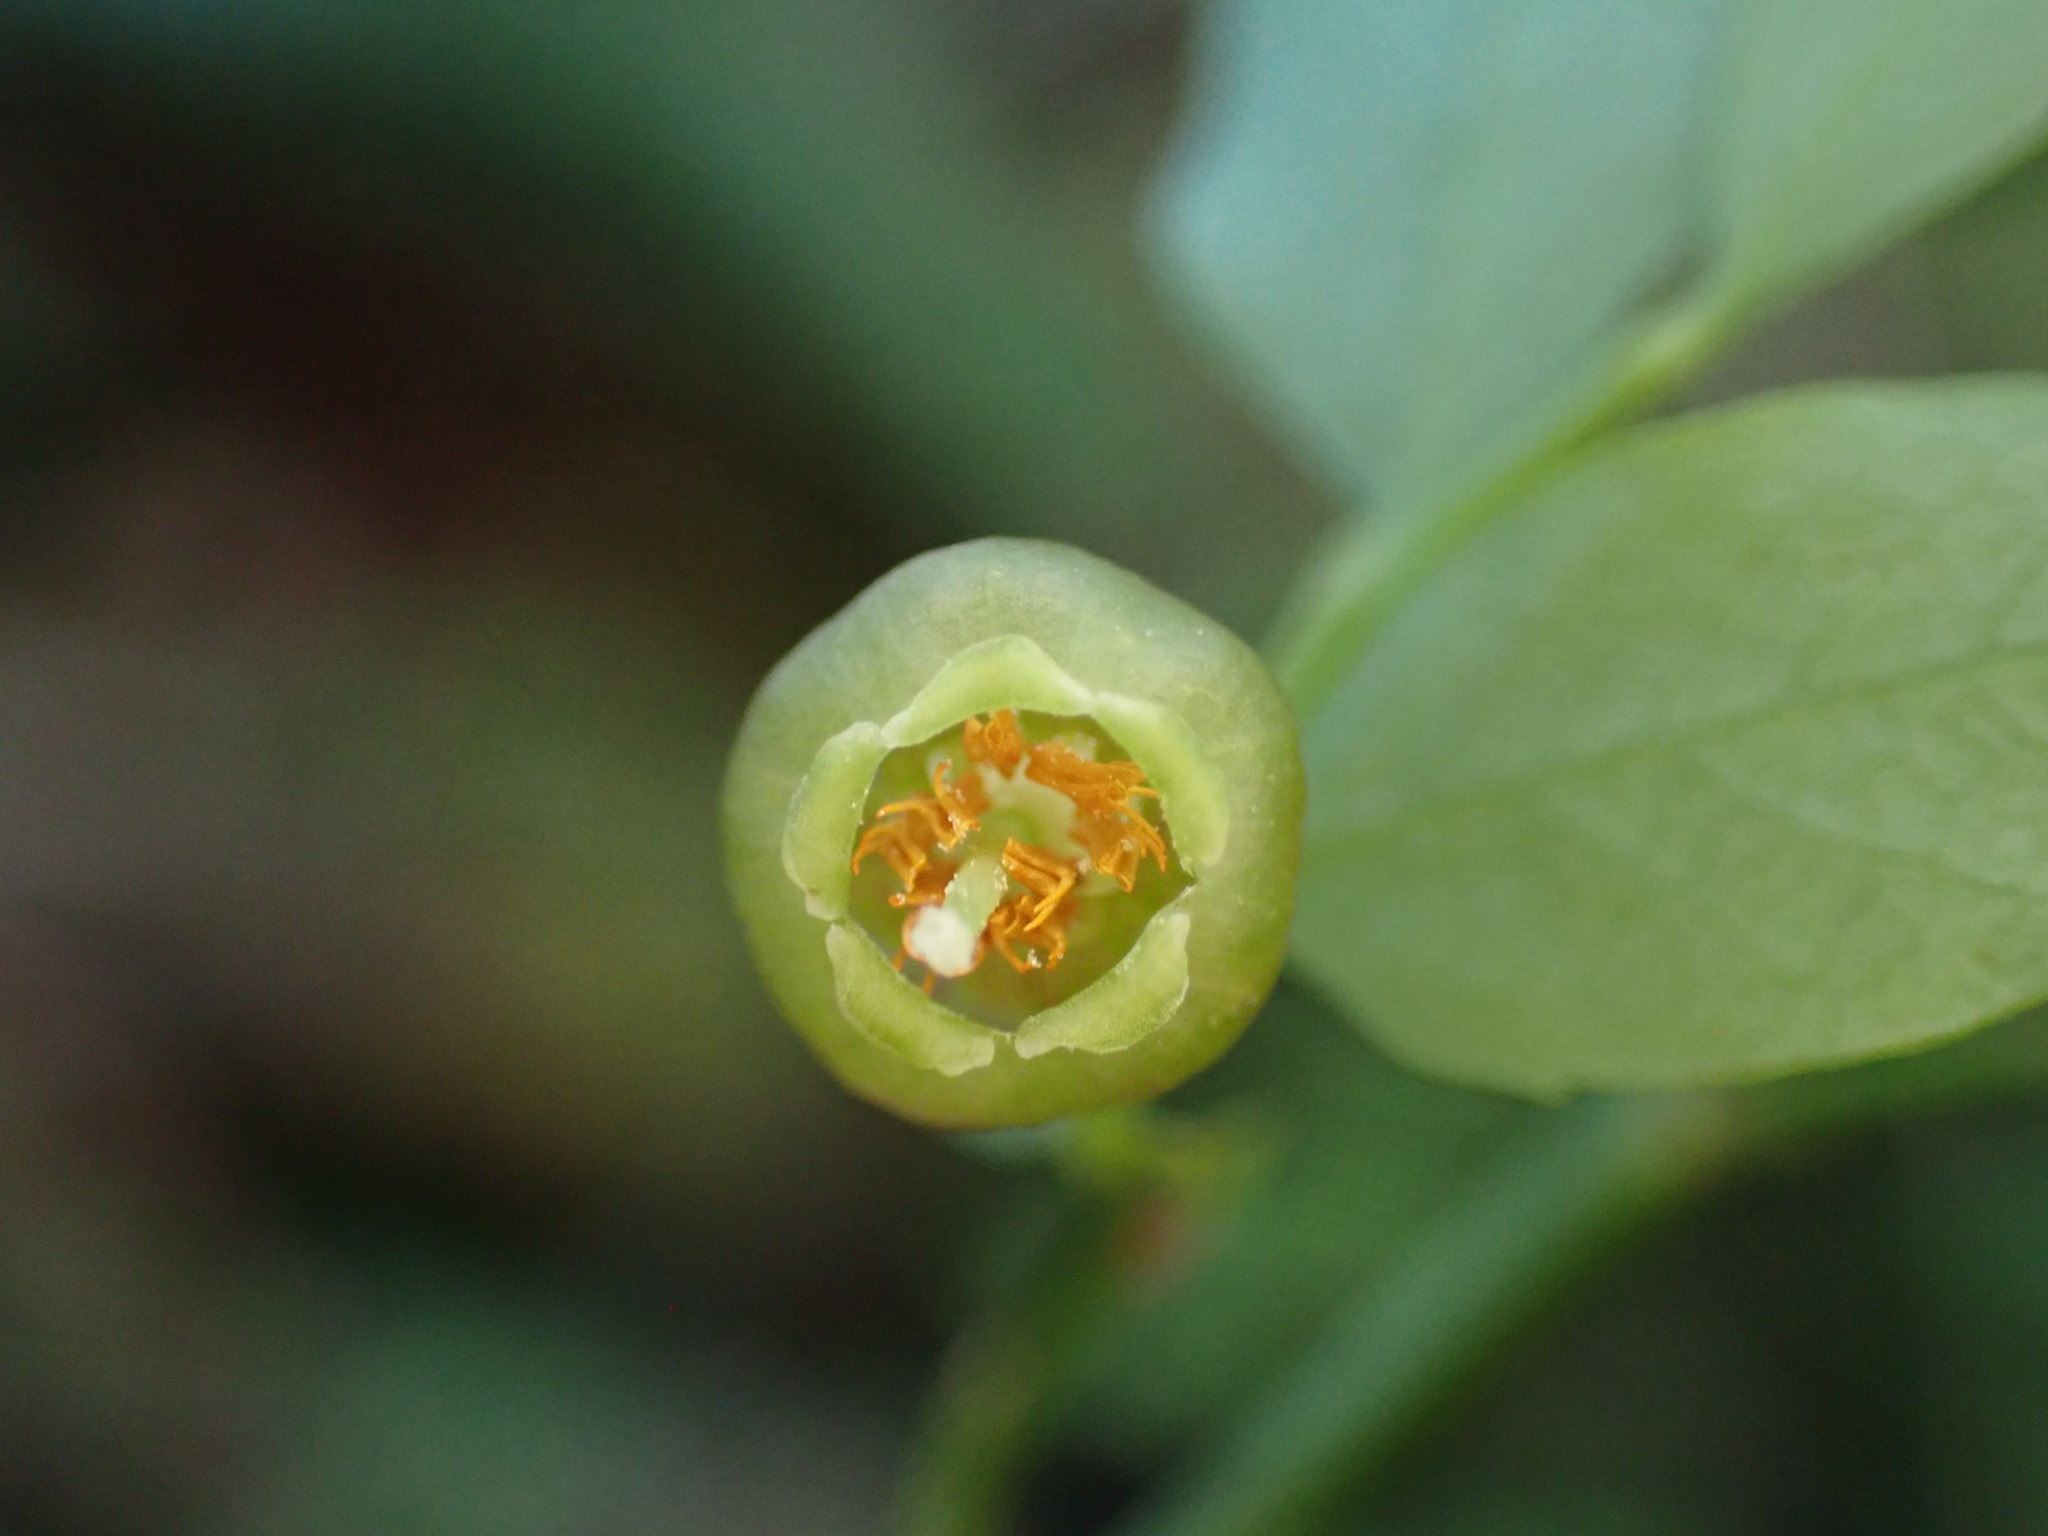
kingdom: Plantae
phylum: Tracheophyta
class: Magnoliopsida
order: Ericales
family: Ericaceae
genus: Vaccinium
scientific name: Vaccinium parvifolium
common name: Red-huckleberry
